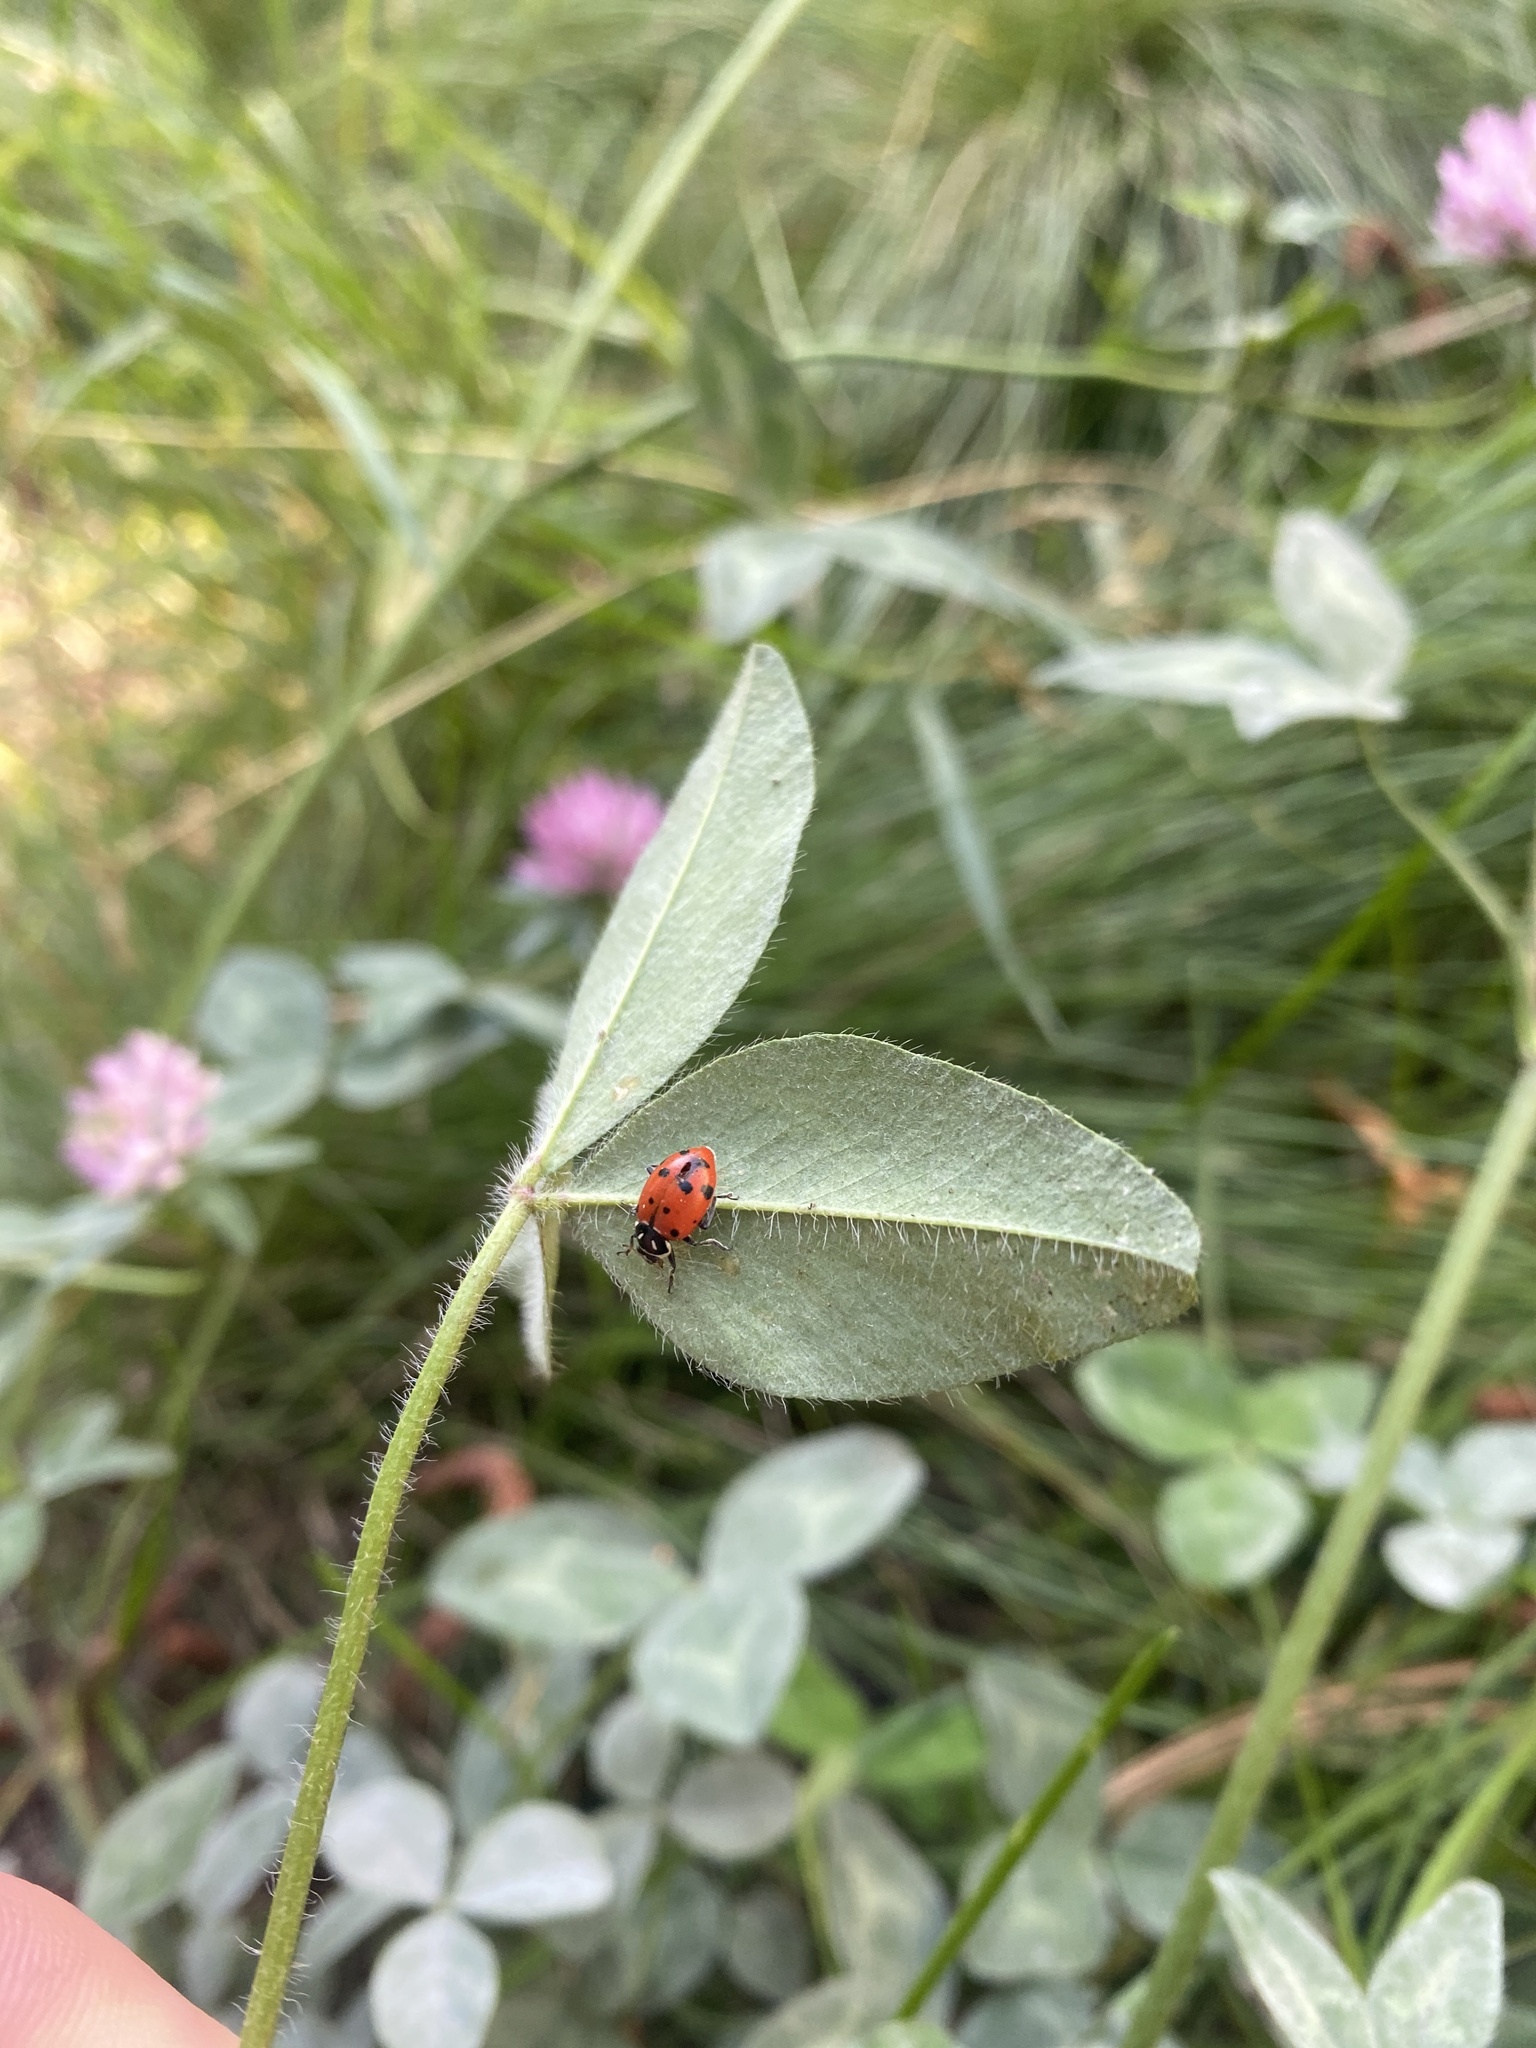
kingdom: Animalia
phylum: Arthropoda
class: Insecta
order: Coleoptera
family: Coccinellidae
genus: Hippodamia
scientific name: Hippodamia convergens
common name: Convergent lady beetle
